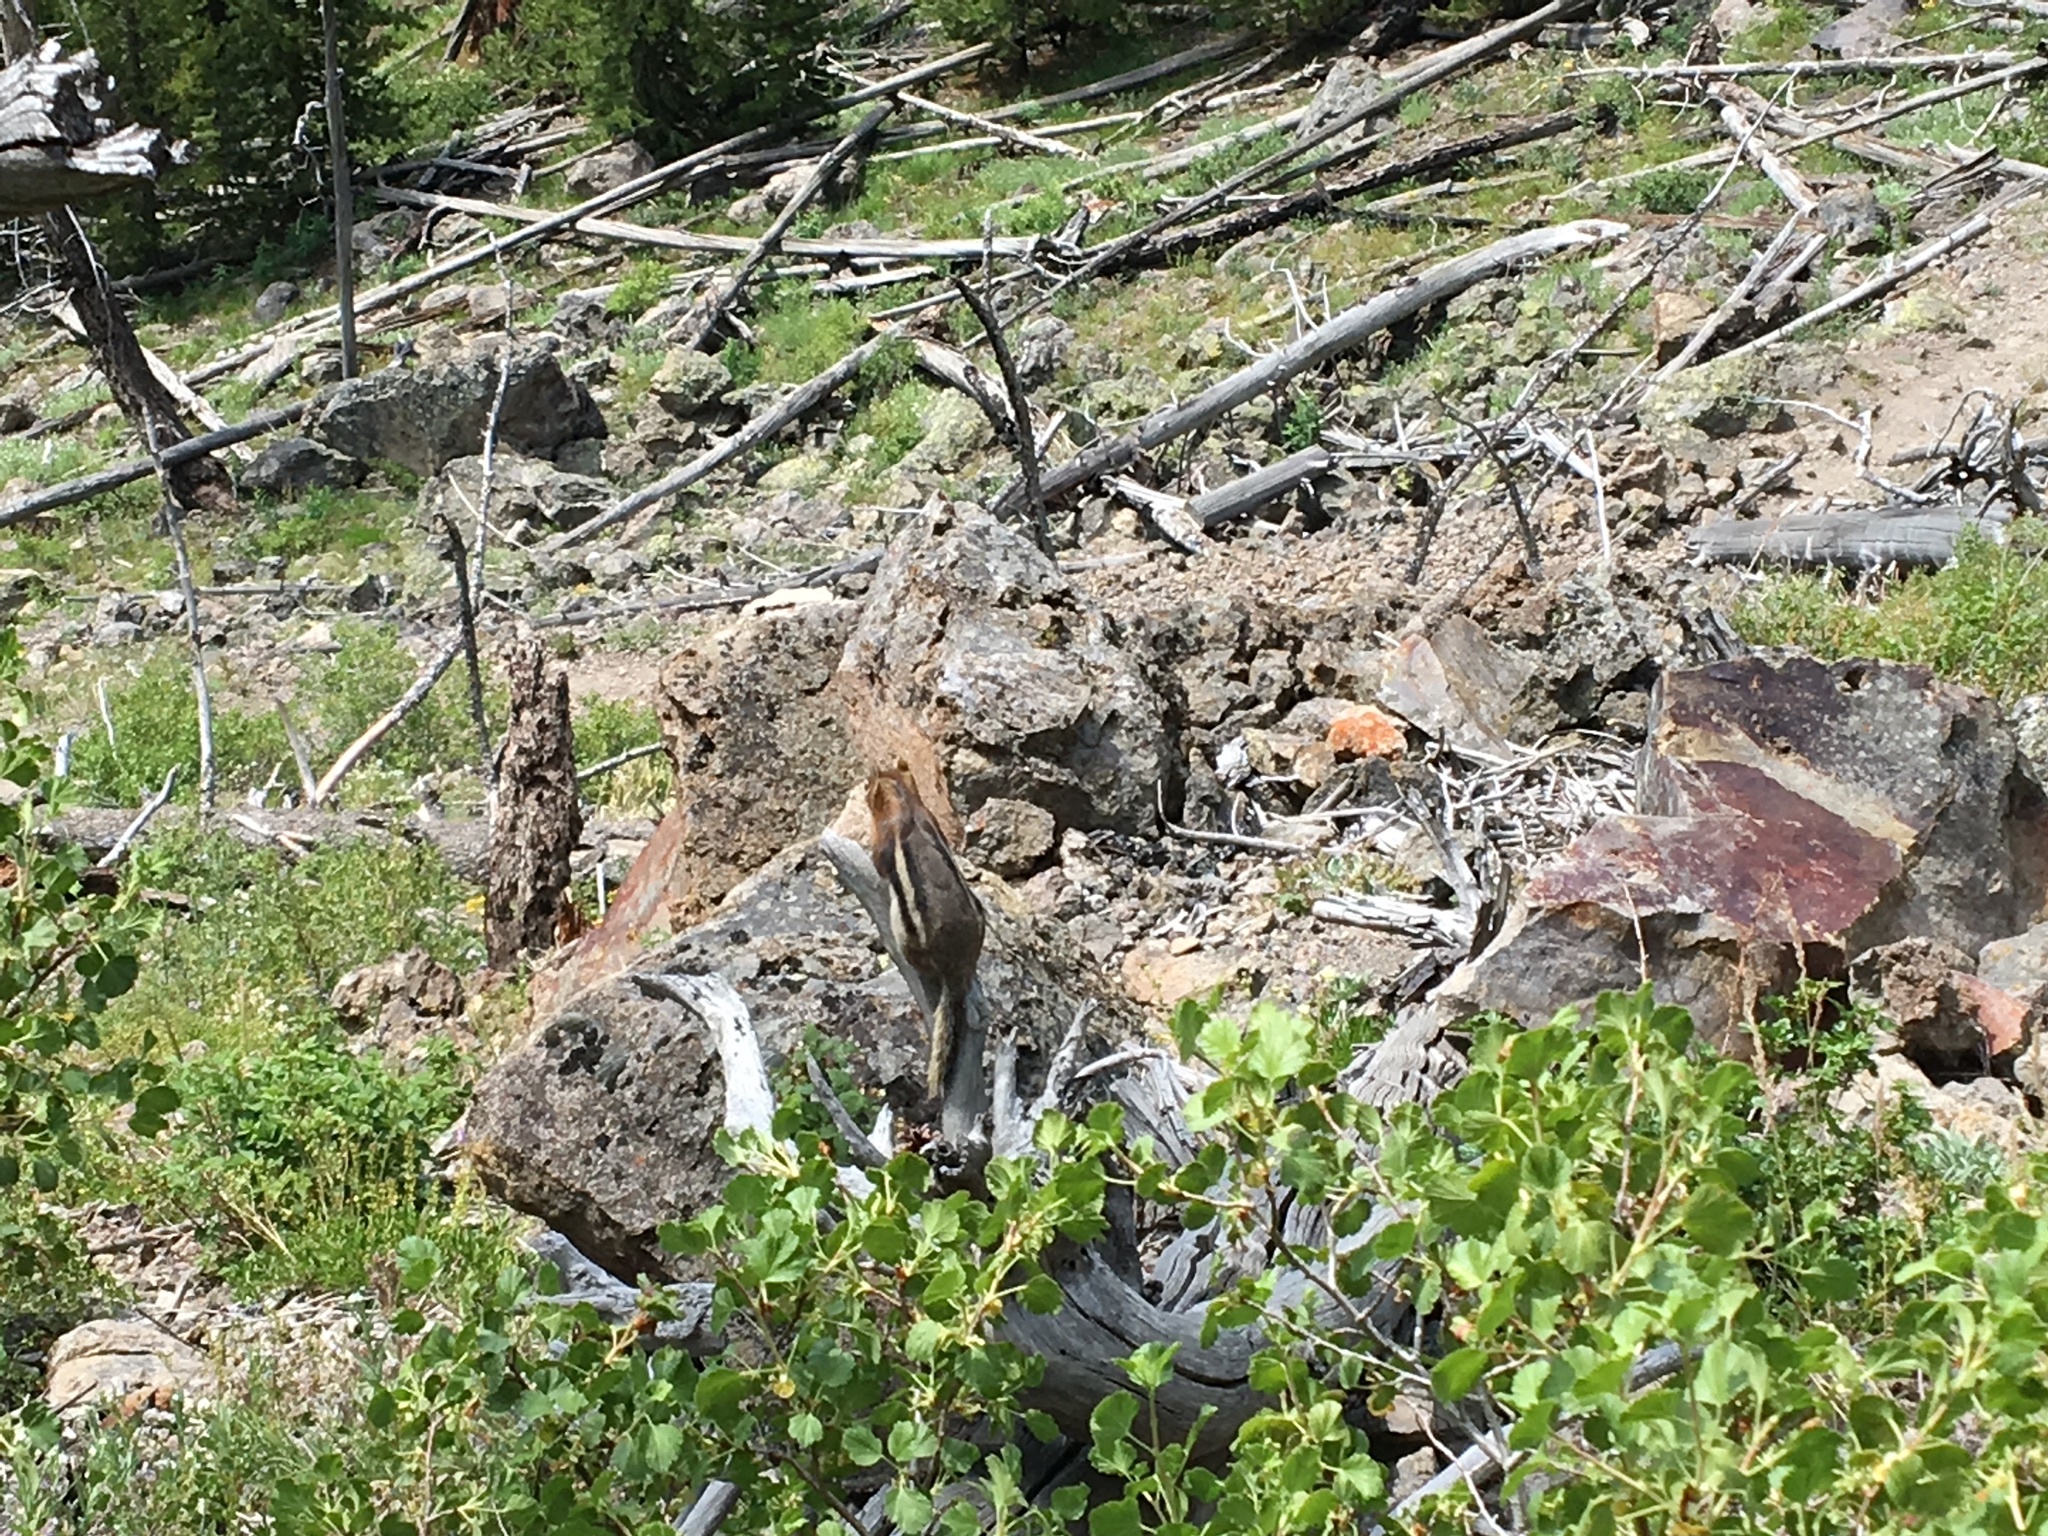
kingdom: Animalia
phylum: Chordata
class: Mammalia
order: Rodentia
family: Sciuridae
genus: Callospermophilus
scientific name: Callospermophilus lateralis
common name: Golden-mantled ground squirrel
